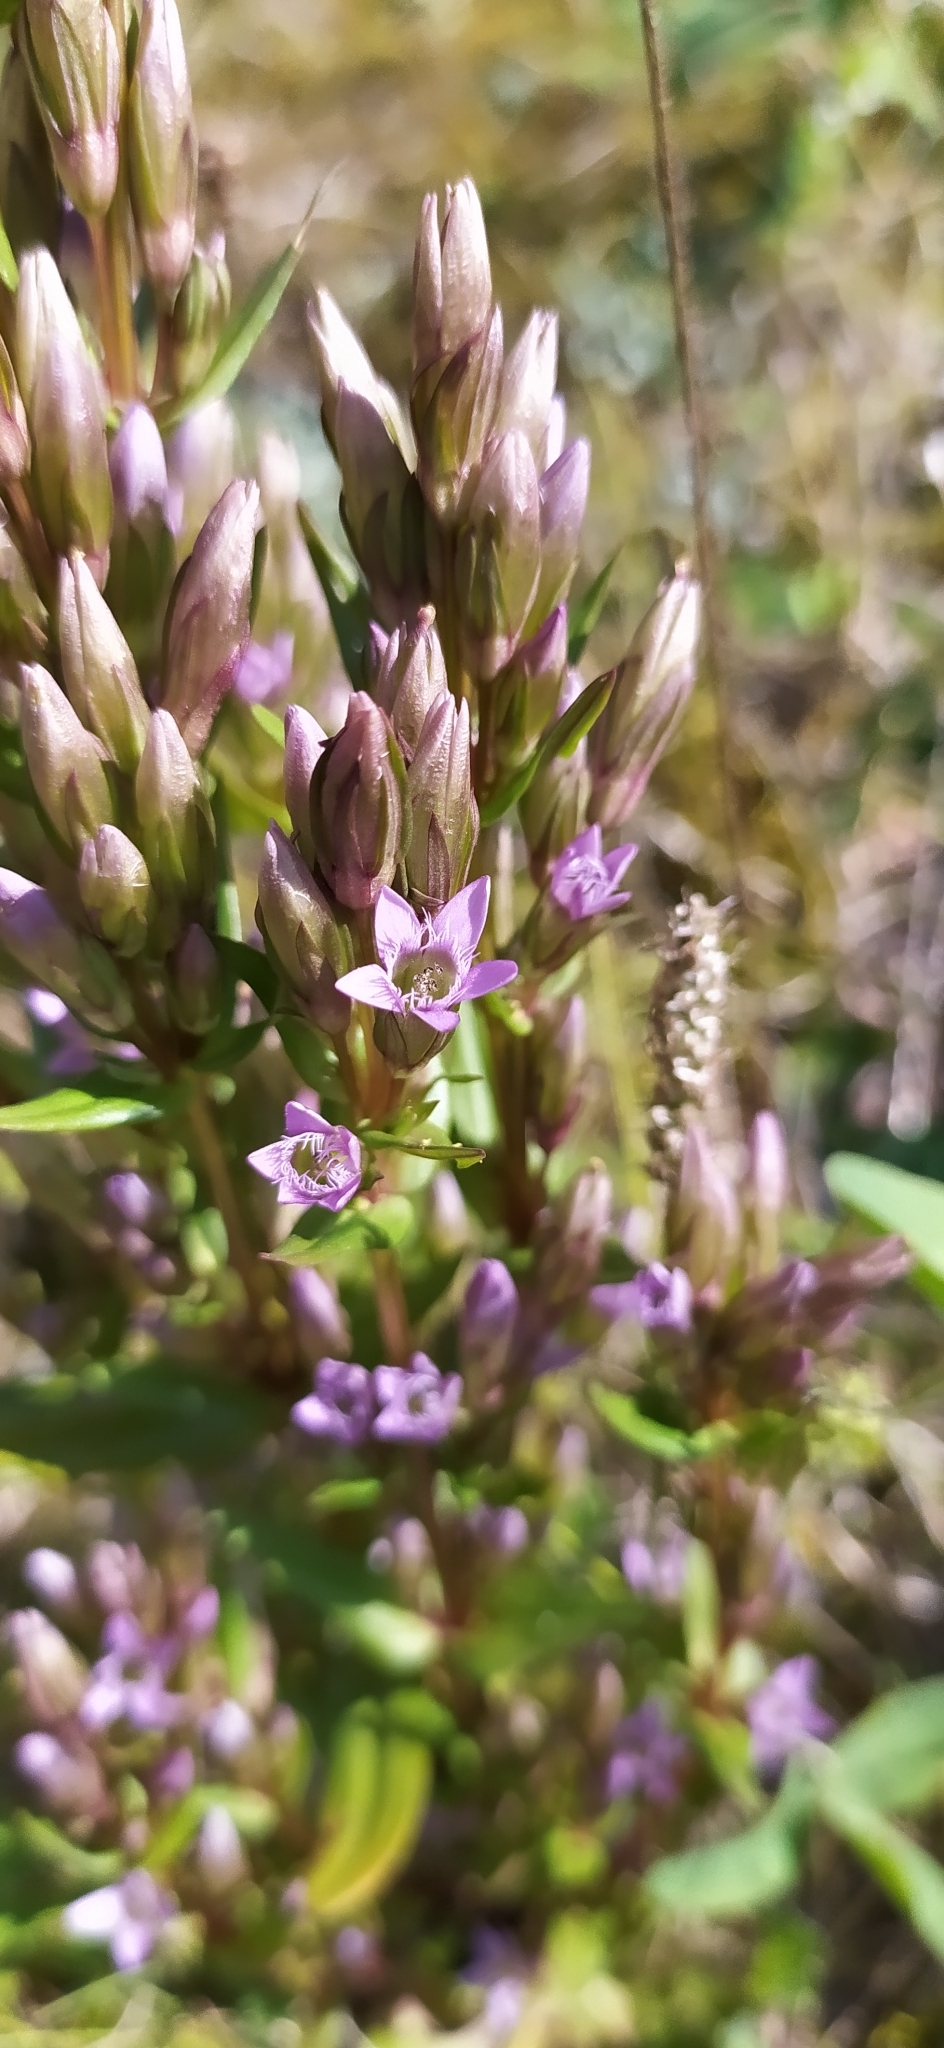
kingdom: Plantae
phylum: Tracheophyta
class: Magnoliopsida
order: Gentianales
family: Gentianaceae
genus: Gentianella
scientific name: Gentianella amarella
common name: Autumn gentian
